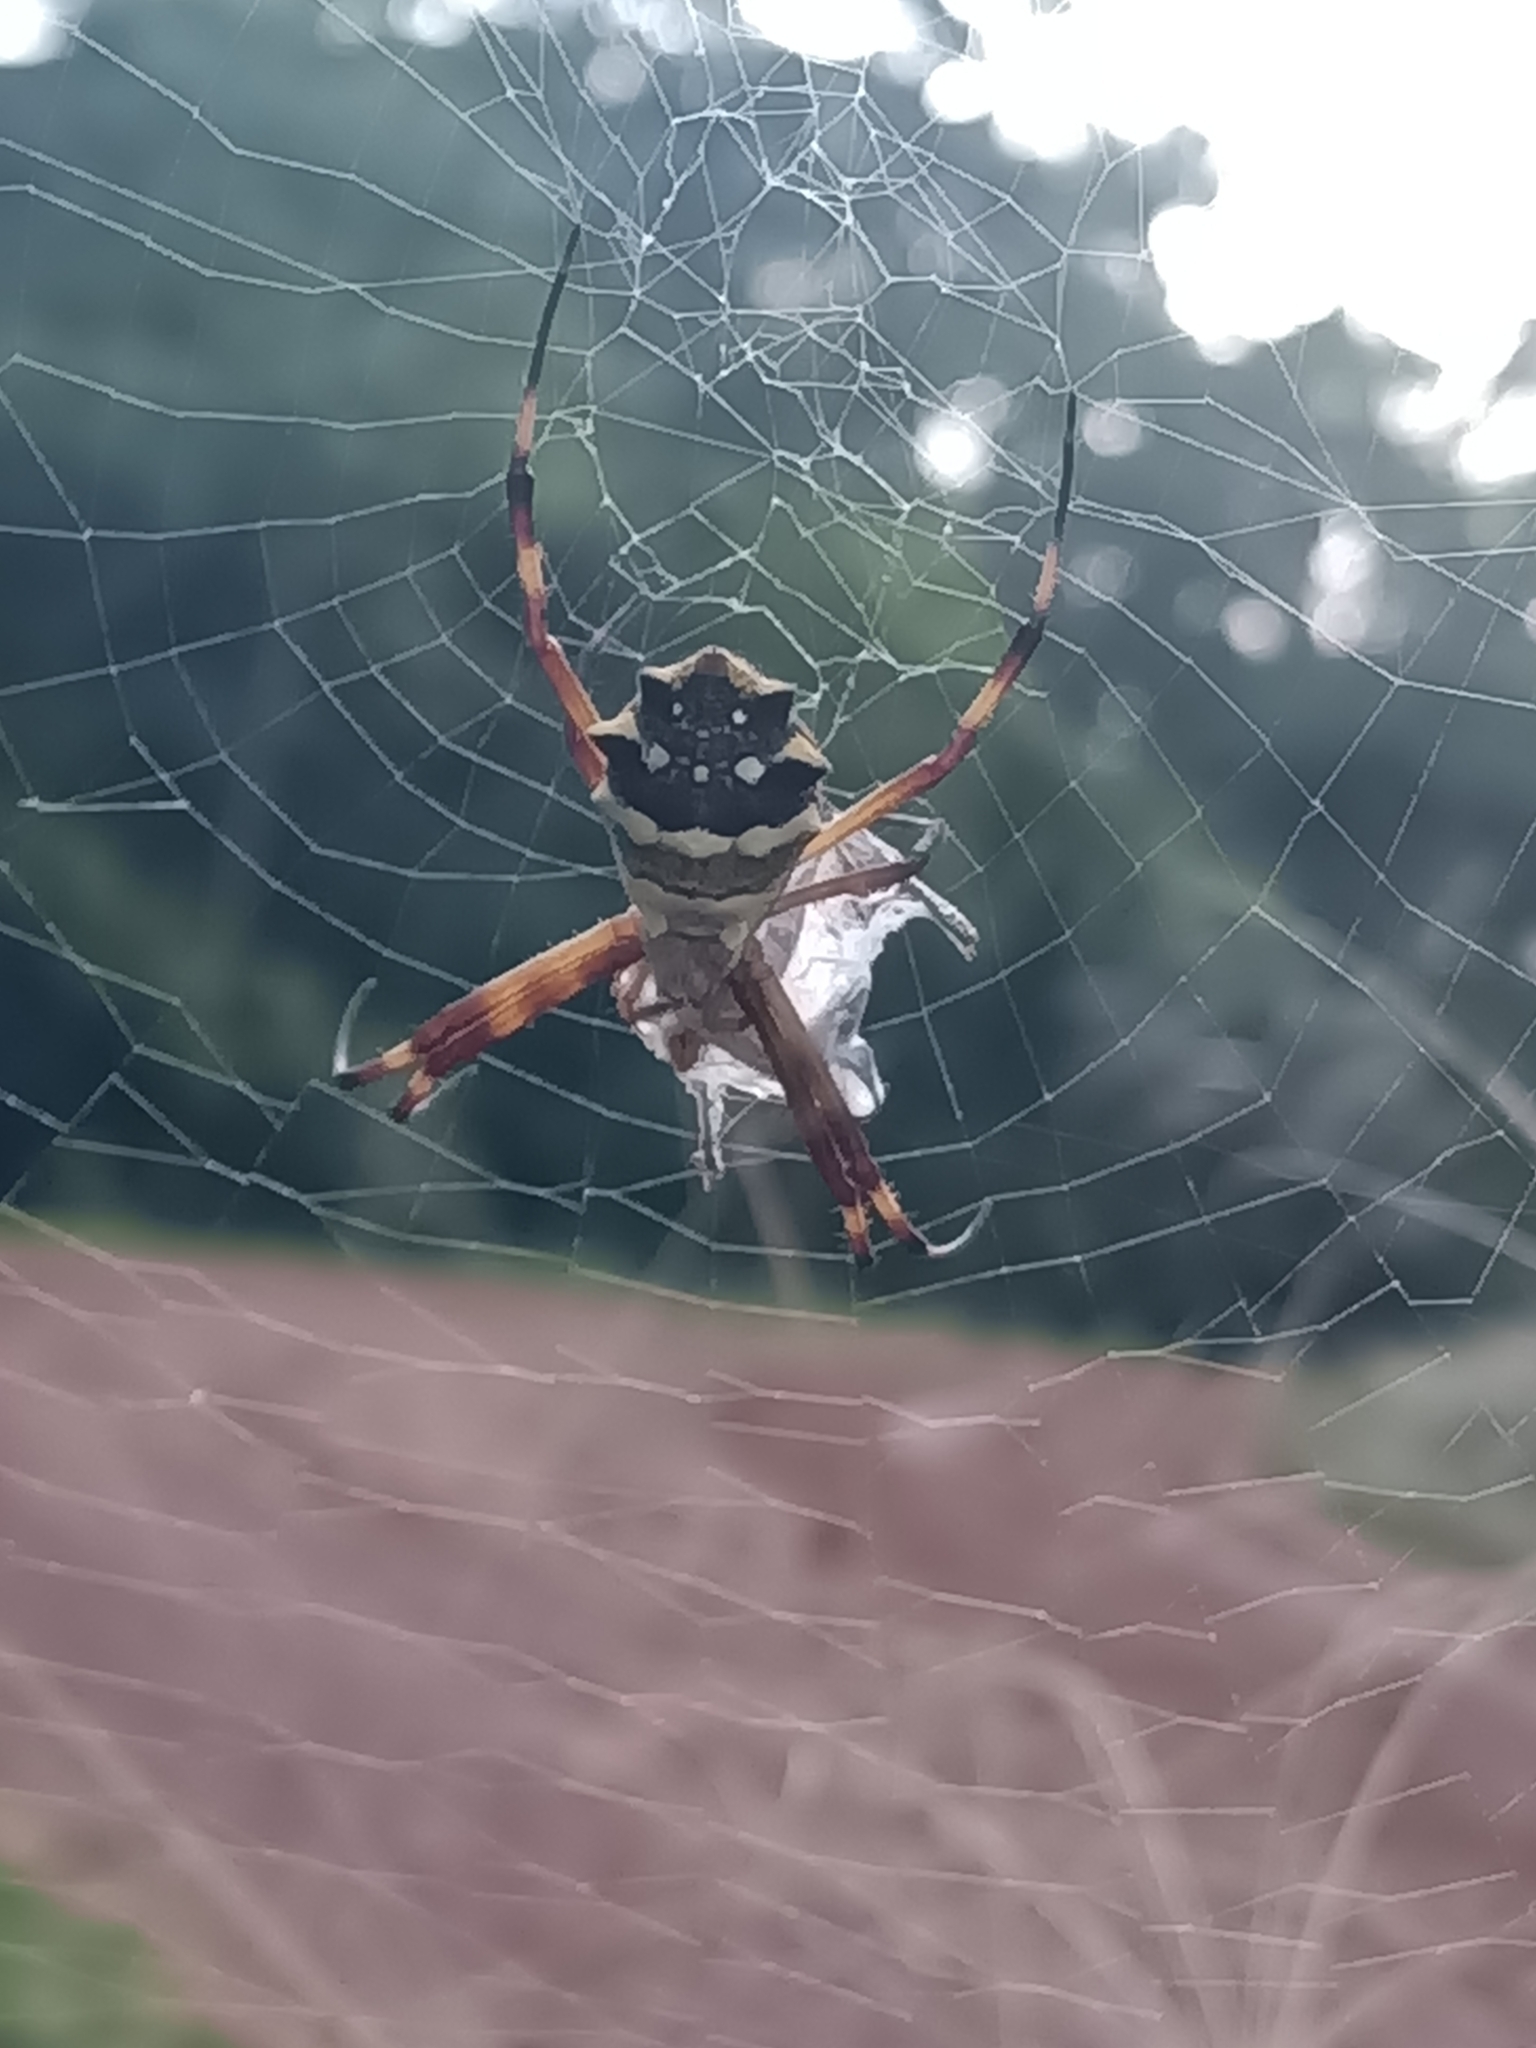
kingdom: Animalia
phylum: Arthropoda
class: Arachnida
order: Araneae
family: Araneidae
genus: Argiope
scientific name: Argiope argentata
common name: Orb weavers
